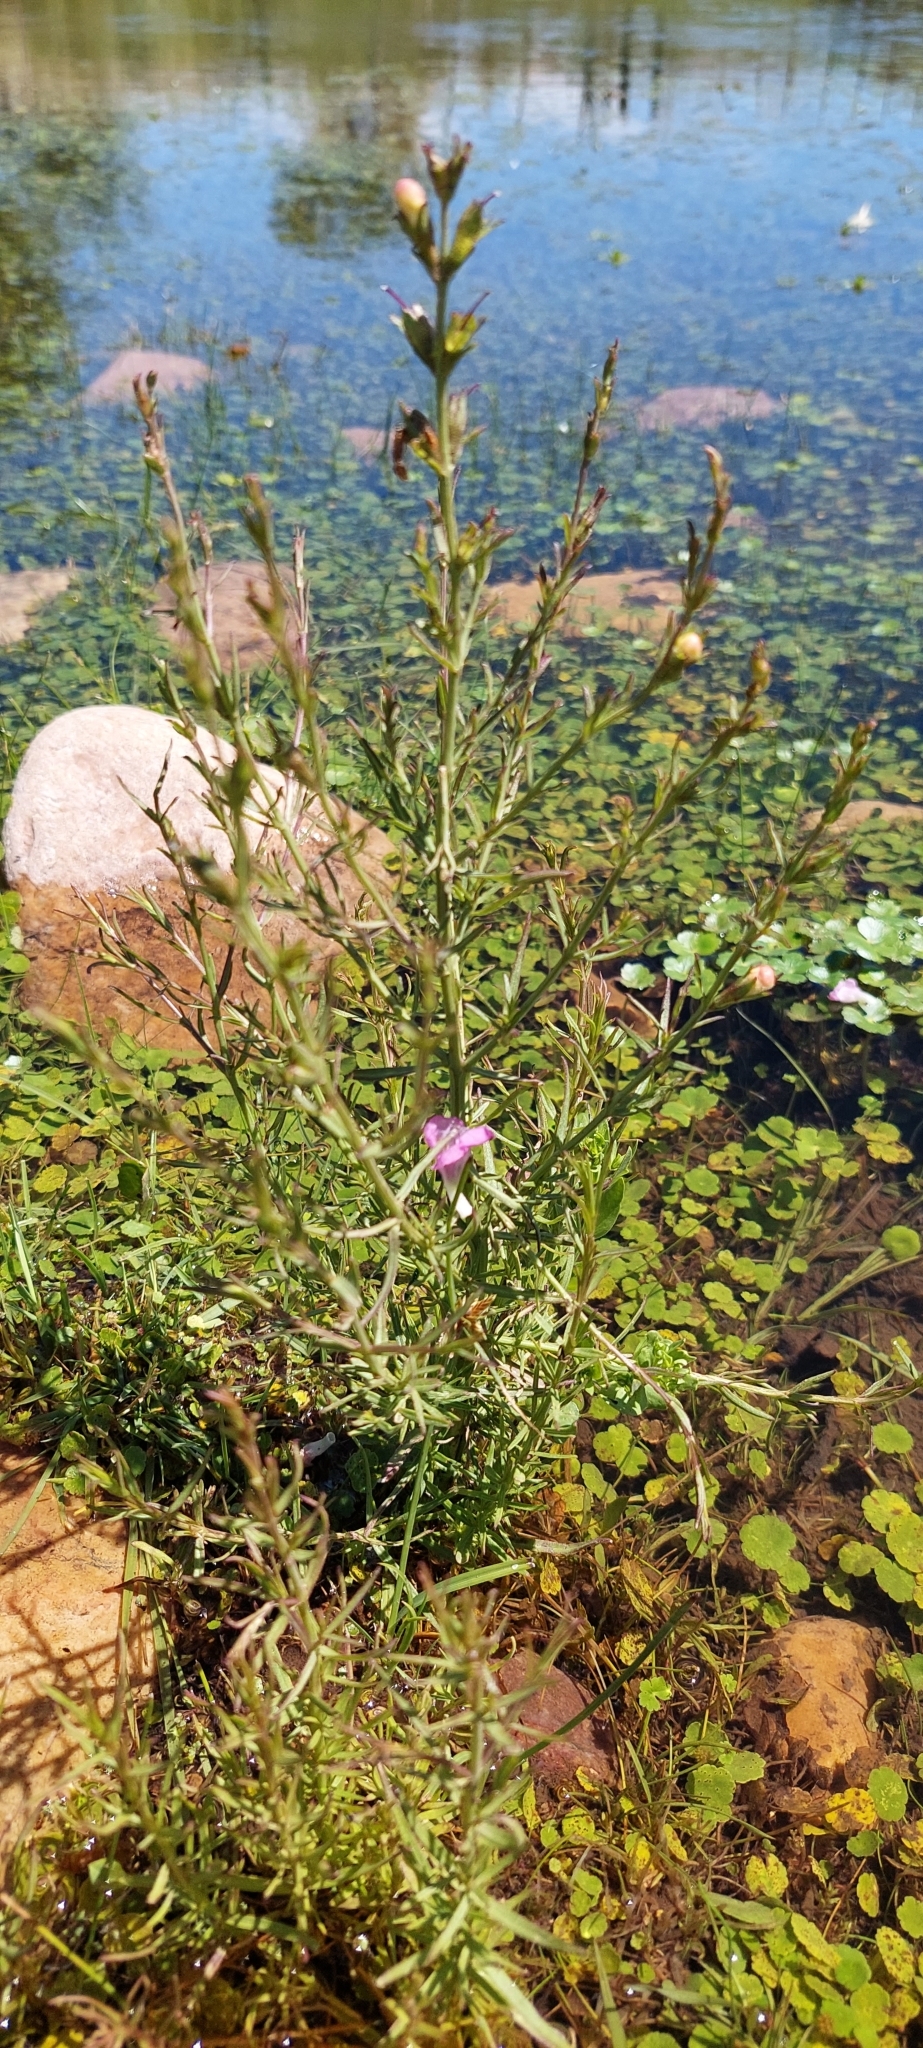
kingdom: Plantae
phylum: Tracheophyta
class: Magnoliopsida
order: Lamiales
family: Orobanchaceae
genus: Agalinis
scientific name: Agalinis communis
